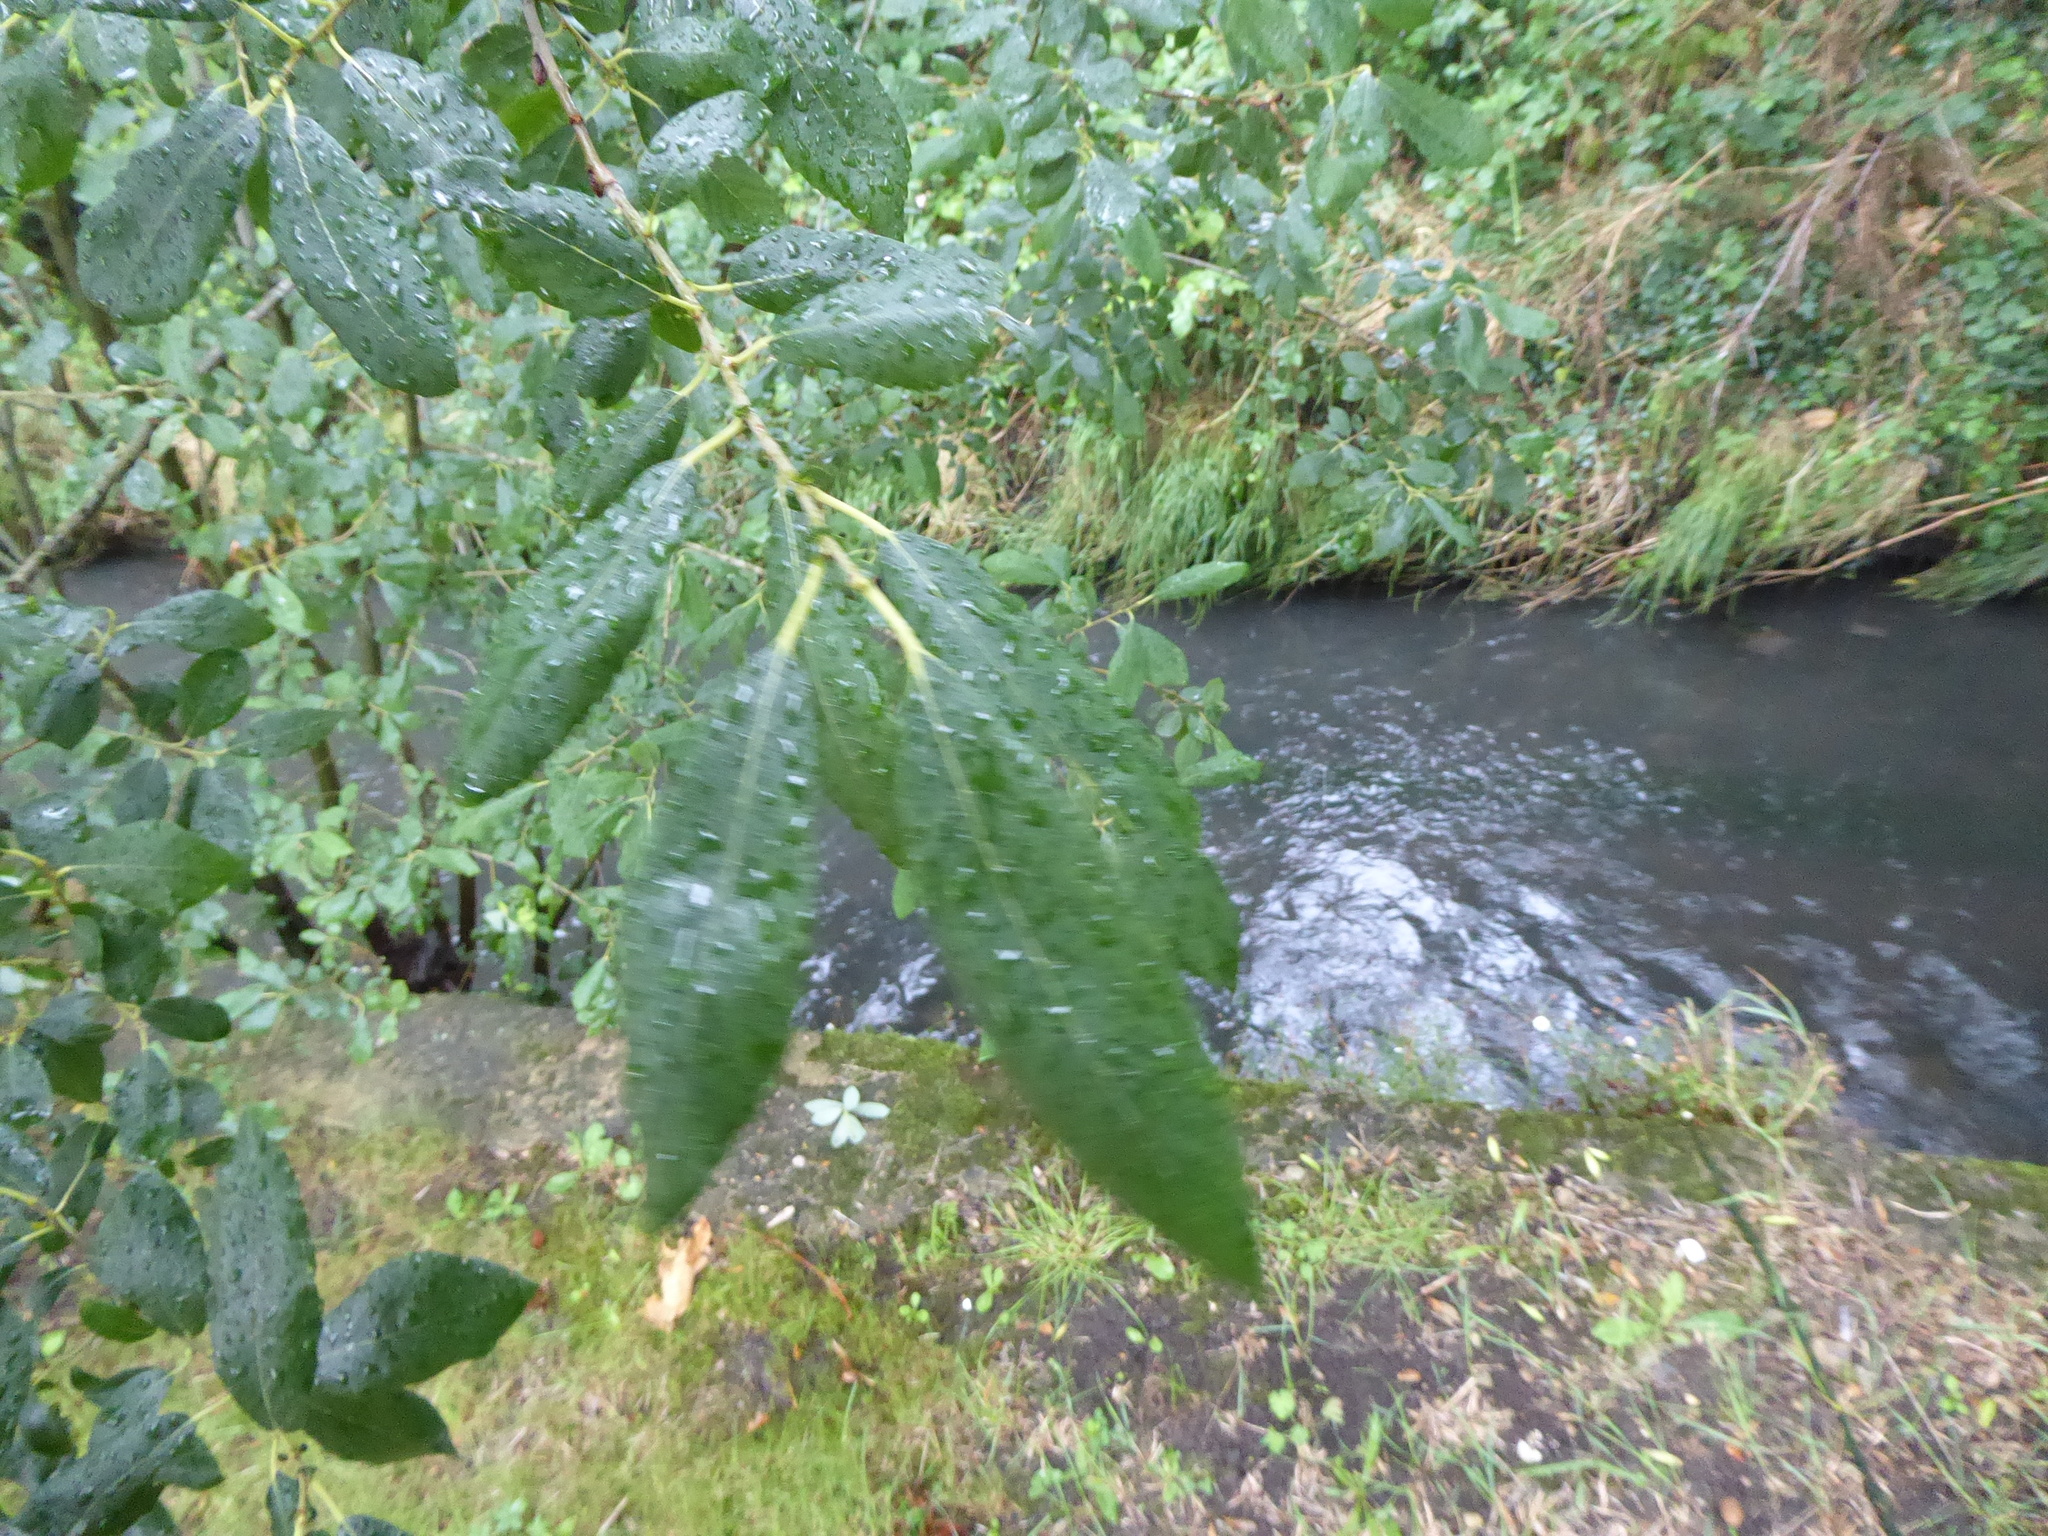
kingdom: Plantae
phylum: Tracheophyta
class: Magnoliopsida
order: Malpighiales
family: Salicaceae
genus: Salix
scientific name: Salix atrocinerea
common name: Rusty willow
